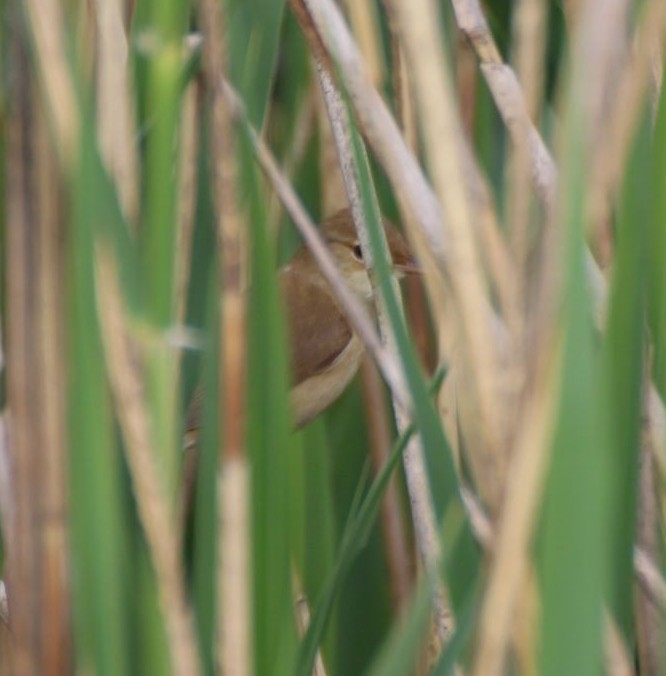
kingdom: Animalia
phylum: Chordata
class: Aves
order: Passeriformes
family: Acrocephalidae
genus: Acrocephalus
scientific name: Acrocephalus scirpaceus
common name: Eurasian reed warbler
